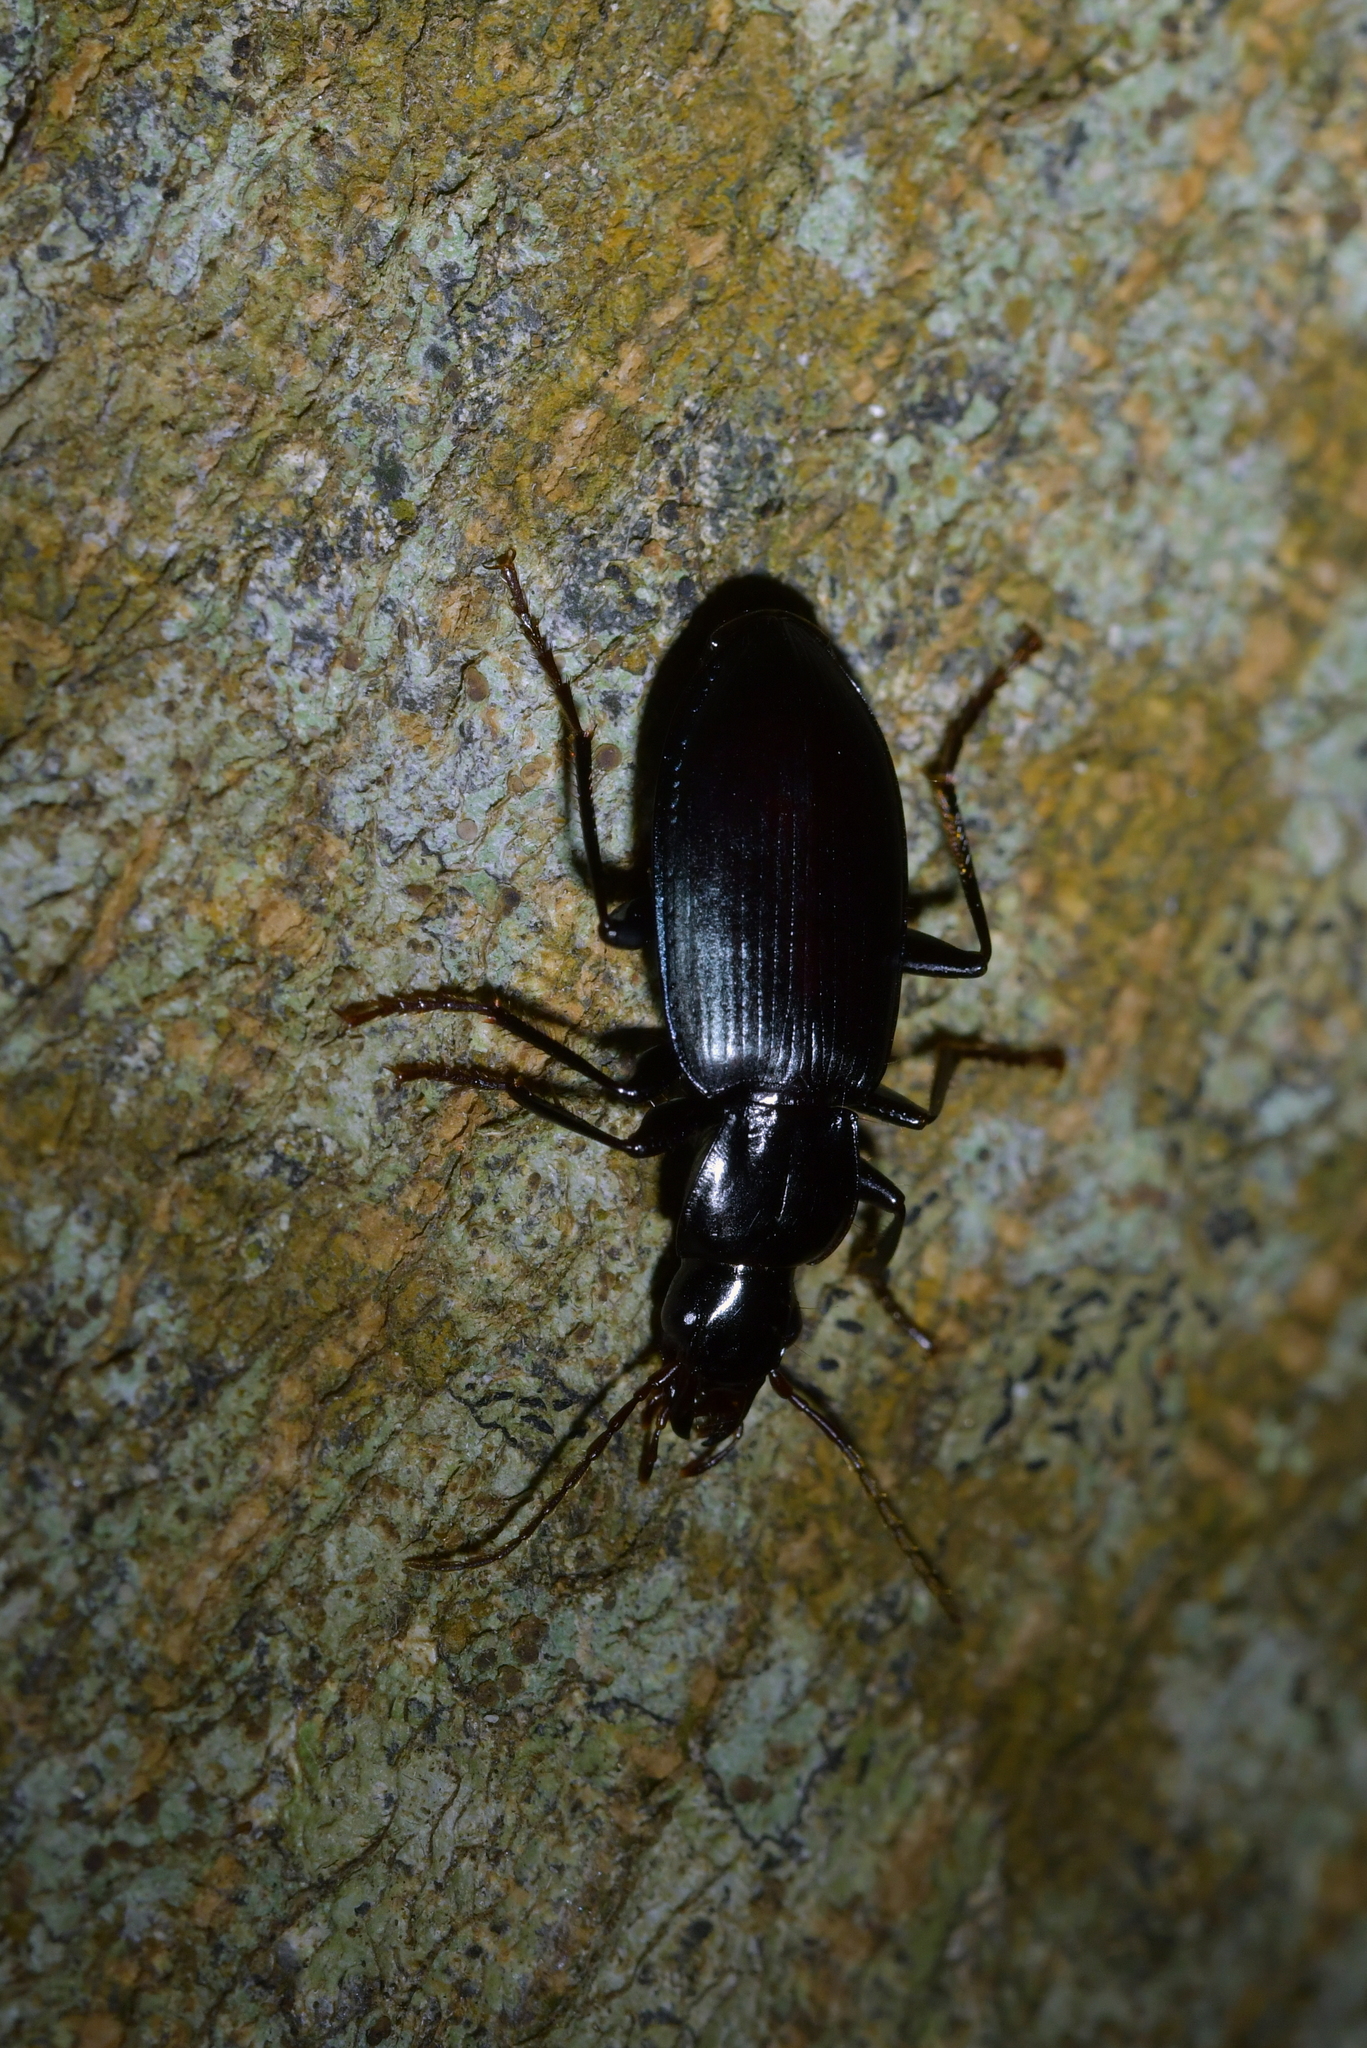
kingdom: Animalia
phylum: Arthropoda
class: Insecta
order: Coleoptera
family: Carabidae
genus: Laemostenus
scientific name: Laemostenus complanatus
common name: Cosmopolitan ground beetle
